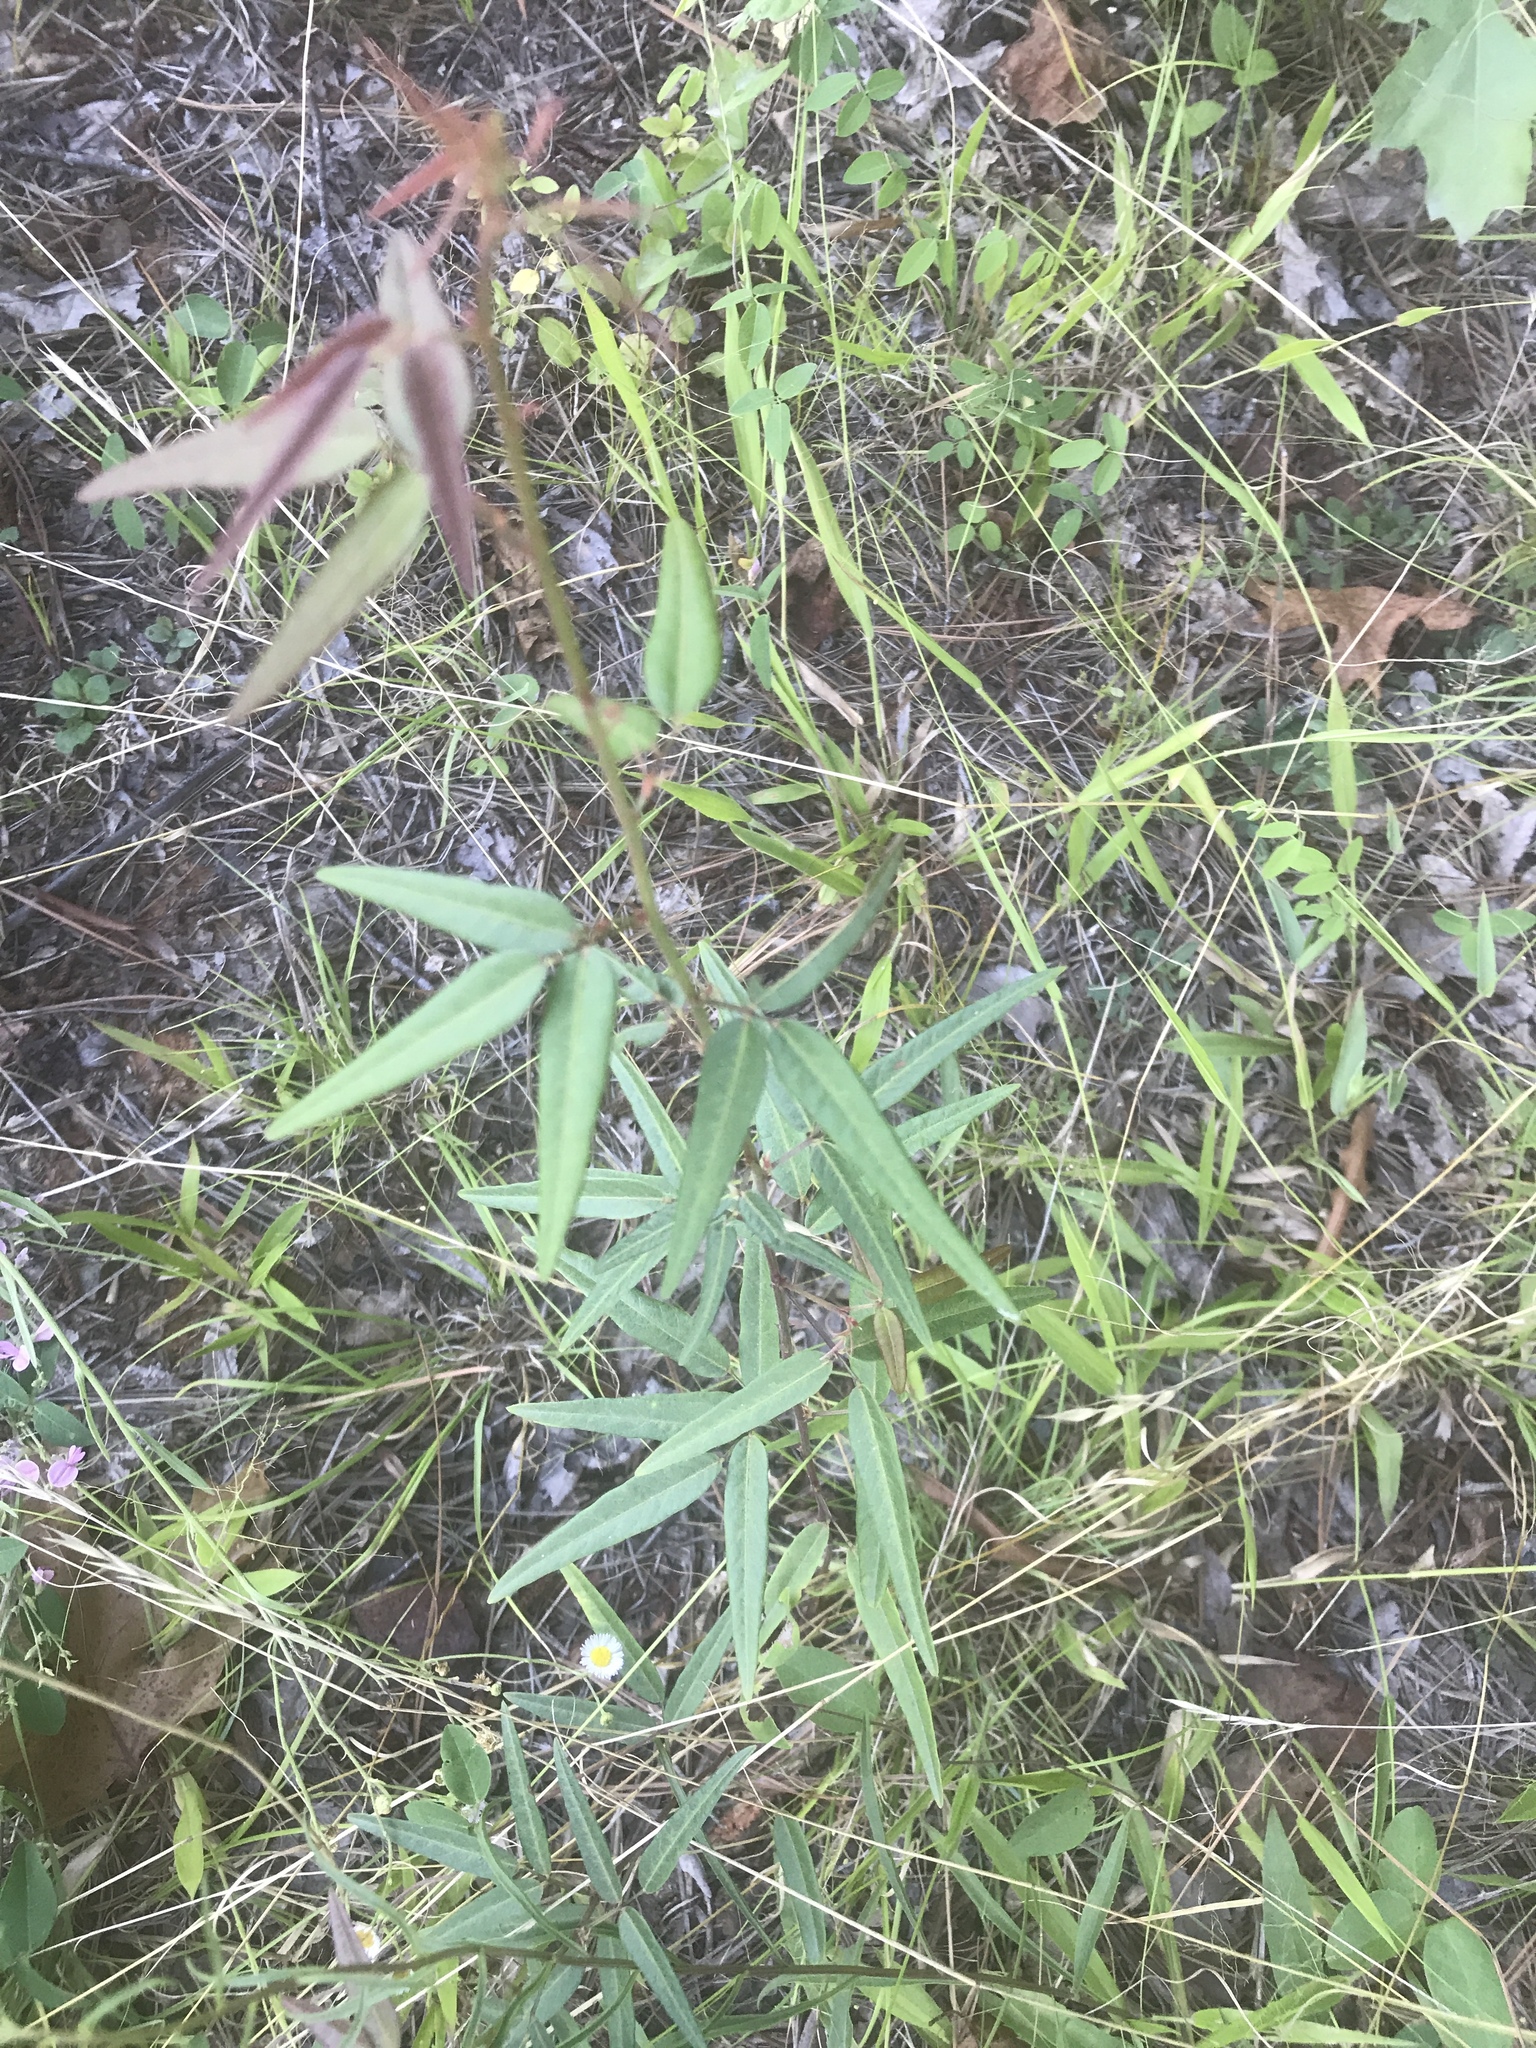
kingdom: Plantae
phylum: Tracheophyta
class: Magnoliopsida
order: Fabales
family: Fabaceae
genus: Desmodium
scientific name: Desmodium paniculatum
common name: Panicled tick-clover
